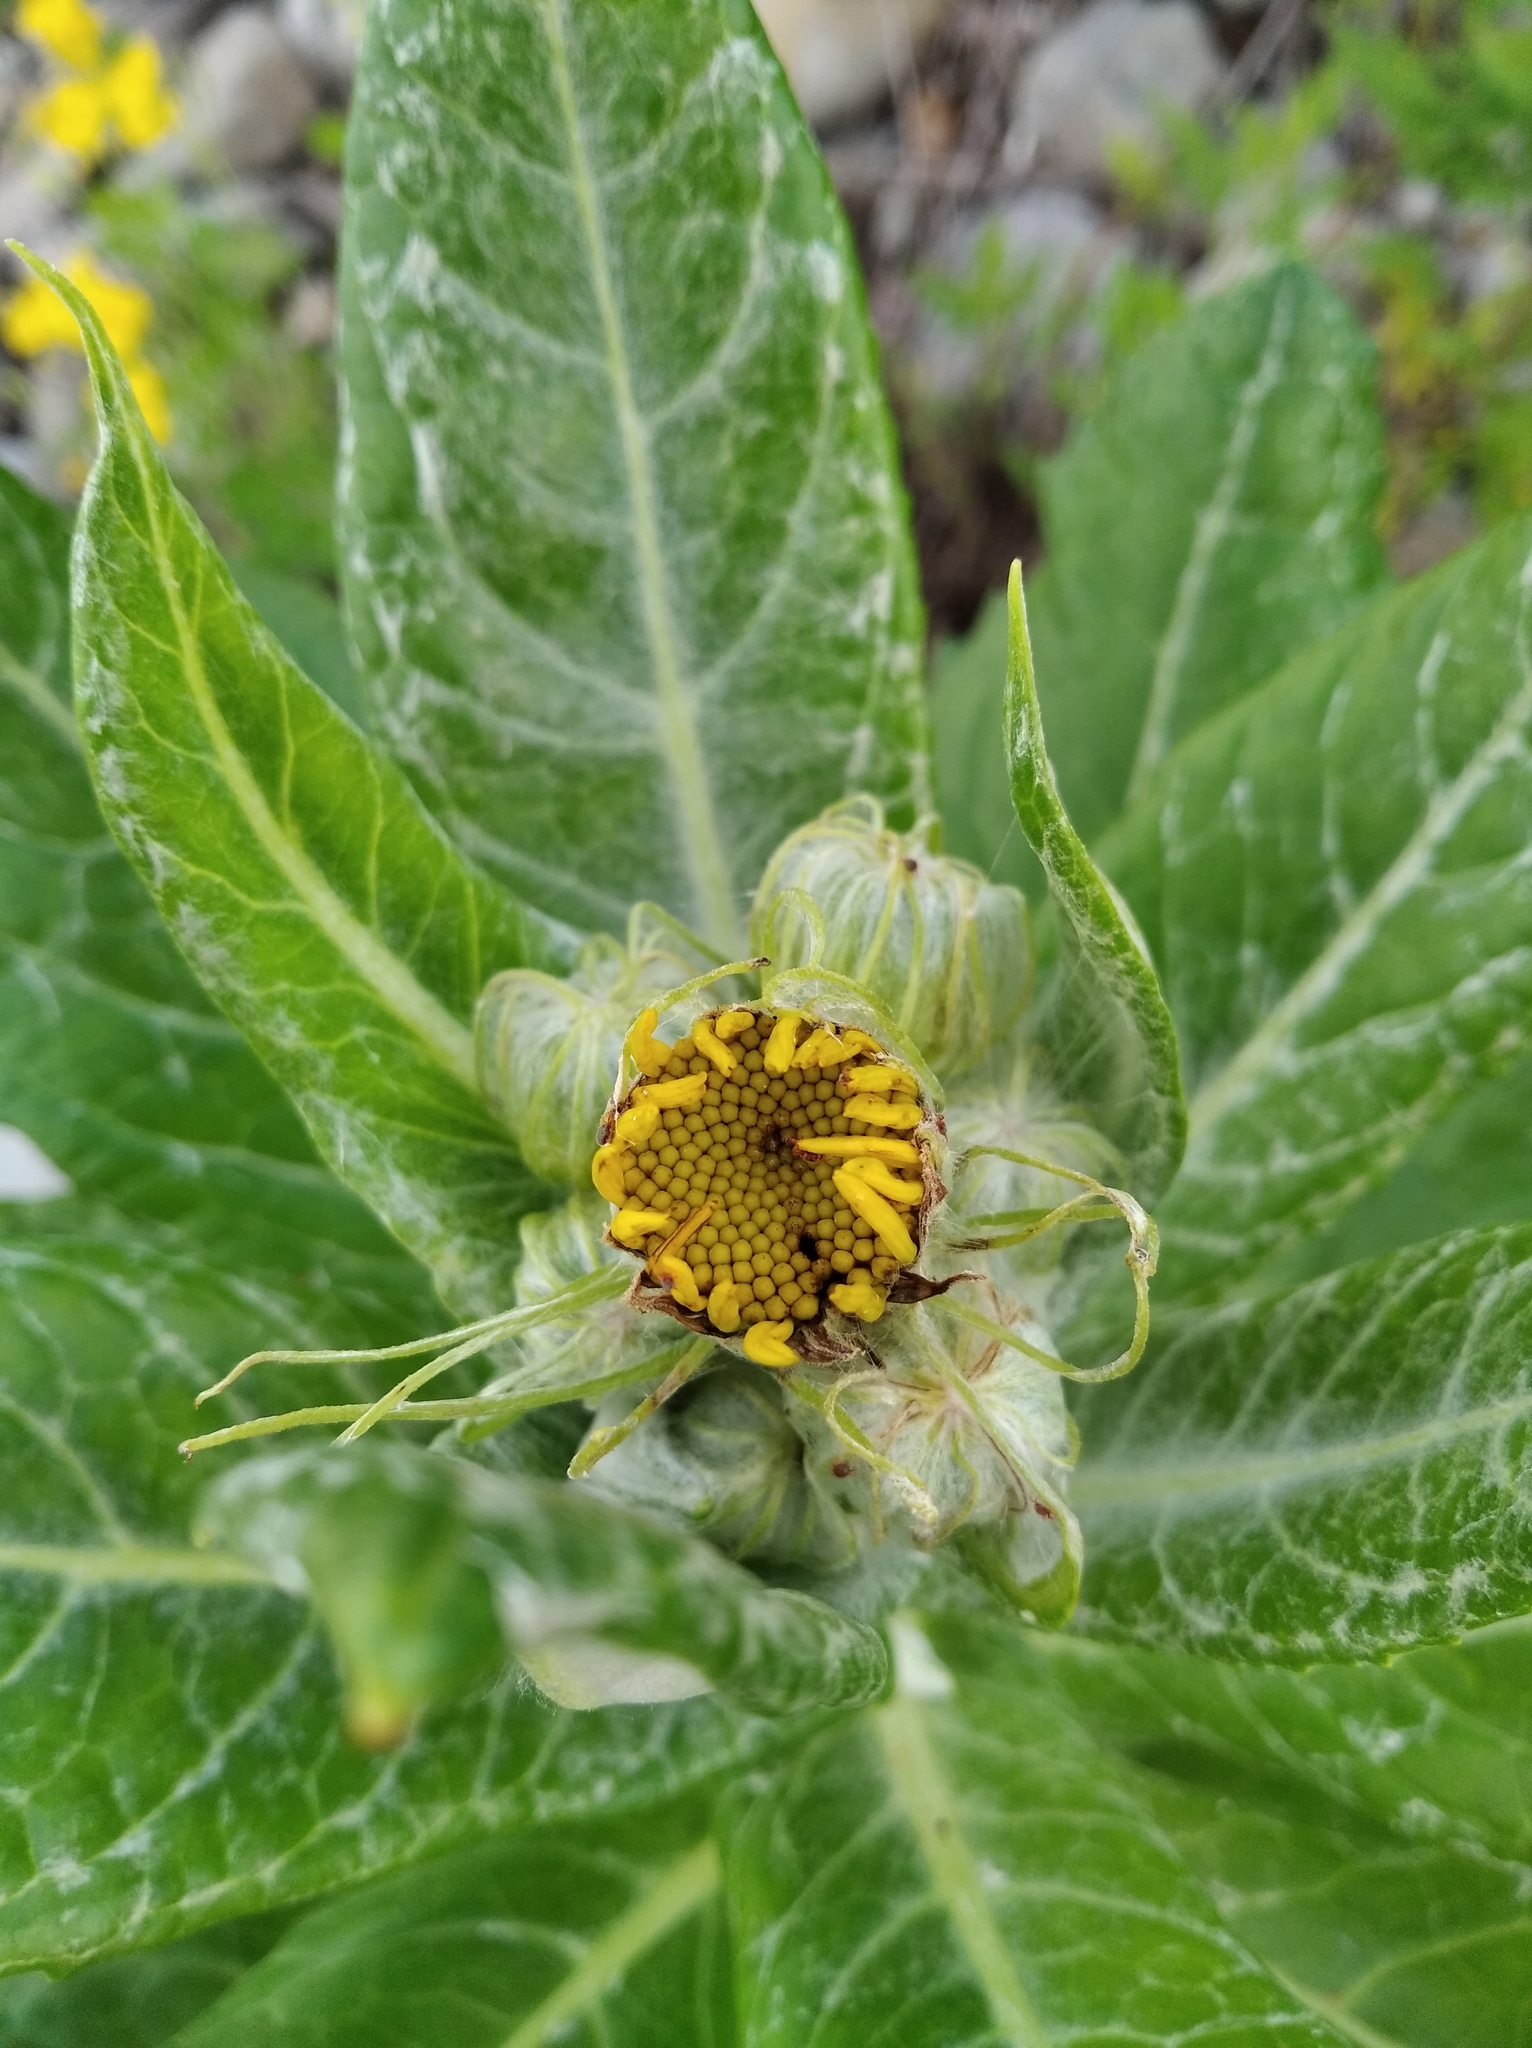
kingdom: Plantae
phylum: Tracheophyta
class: Magnoliopsida
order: Asterales
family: Asteraceae
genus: Jacobaea
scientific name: Jacobaea pseudoarnica
